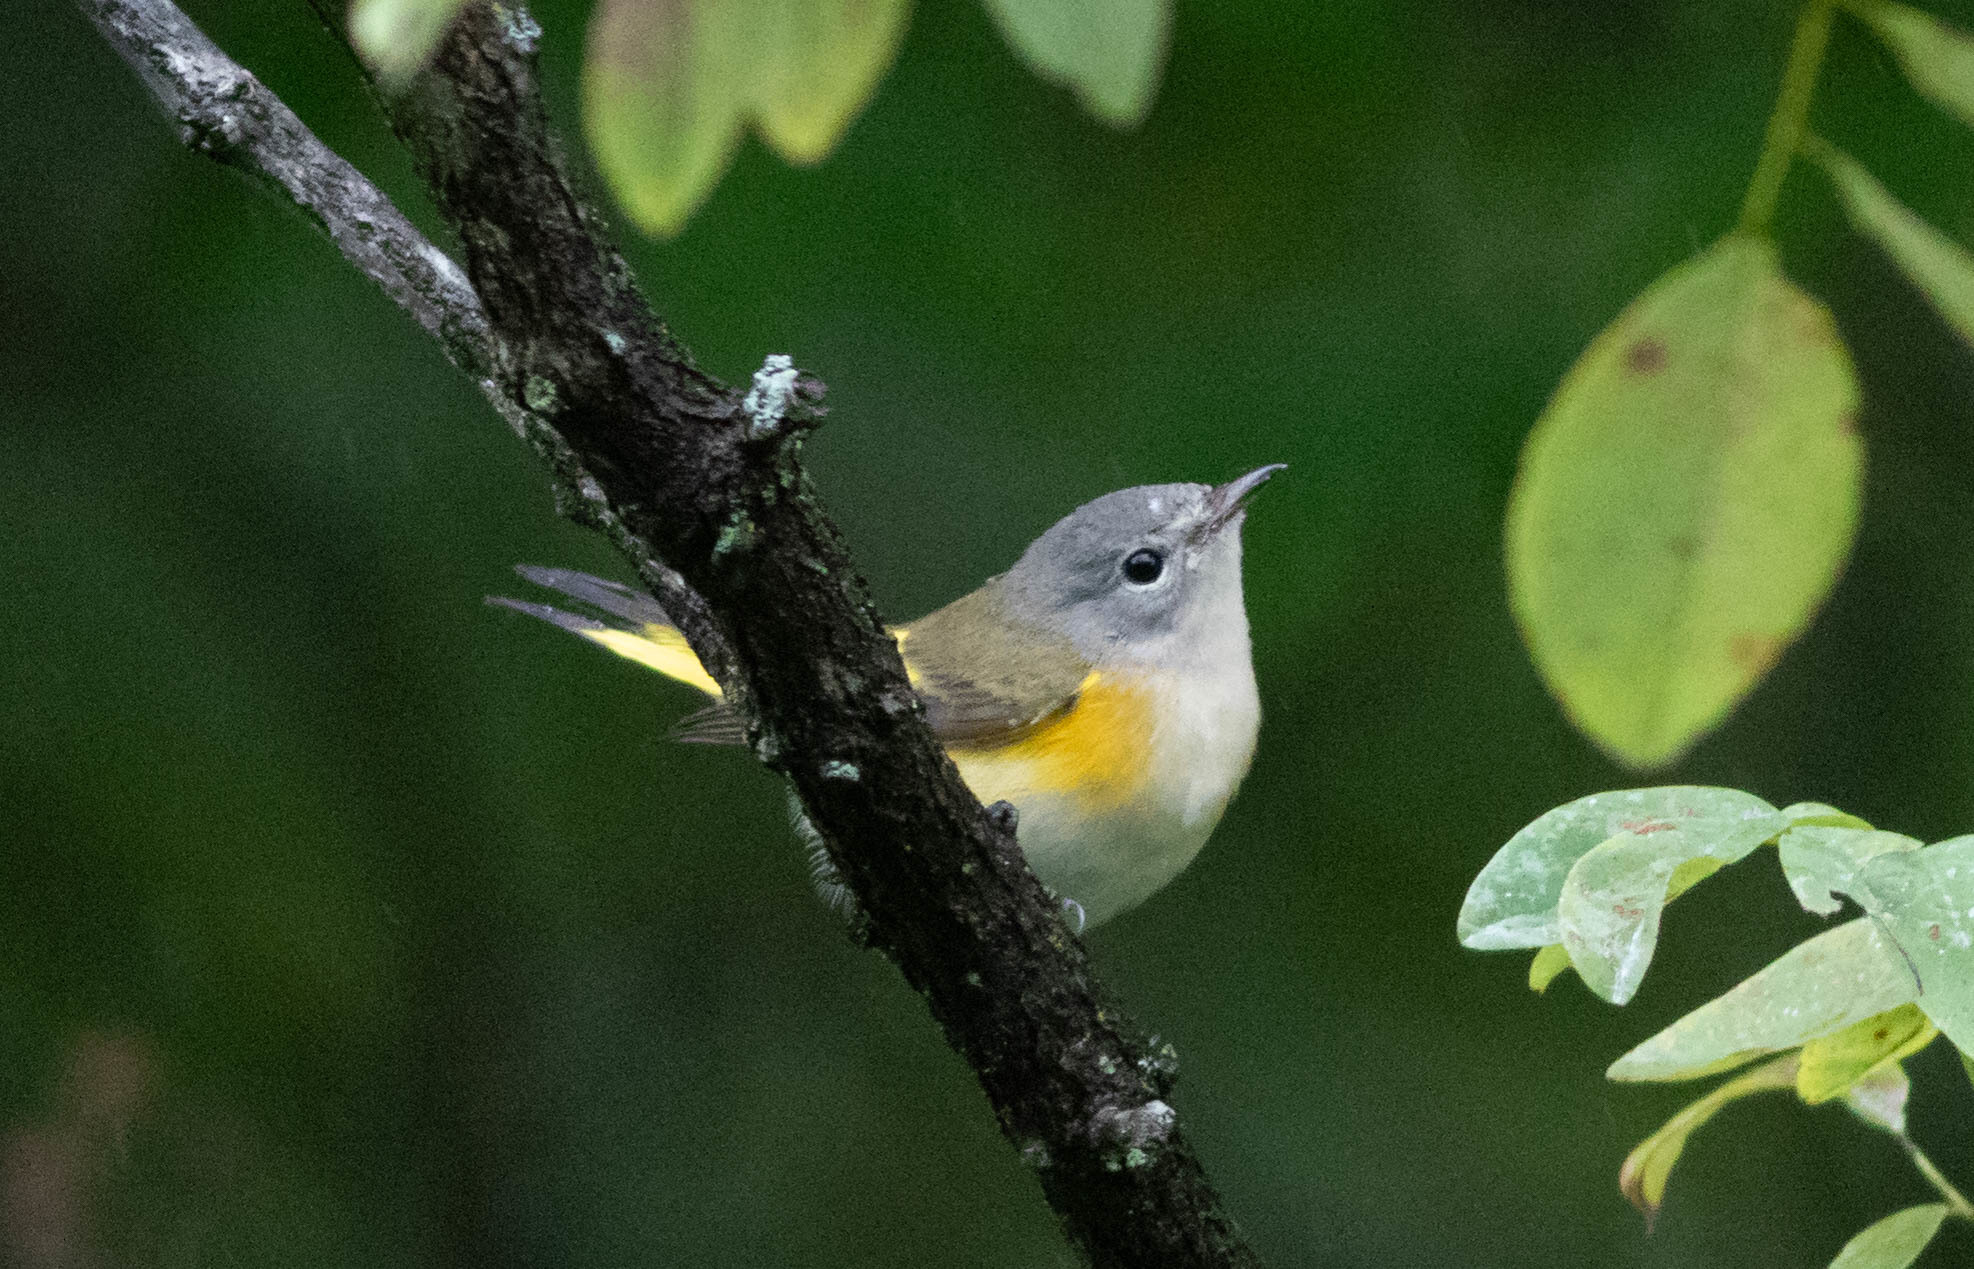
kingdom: Animalia
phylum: Chordata
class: Aves
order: Passeriformes
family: Parulidae
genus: Setophaga
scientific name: Setophaga ruticilla
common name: American redstart
